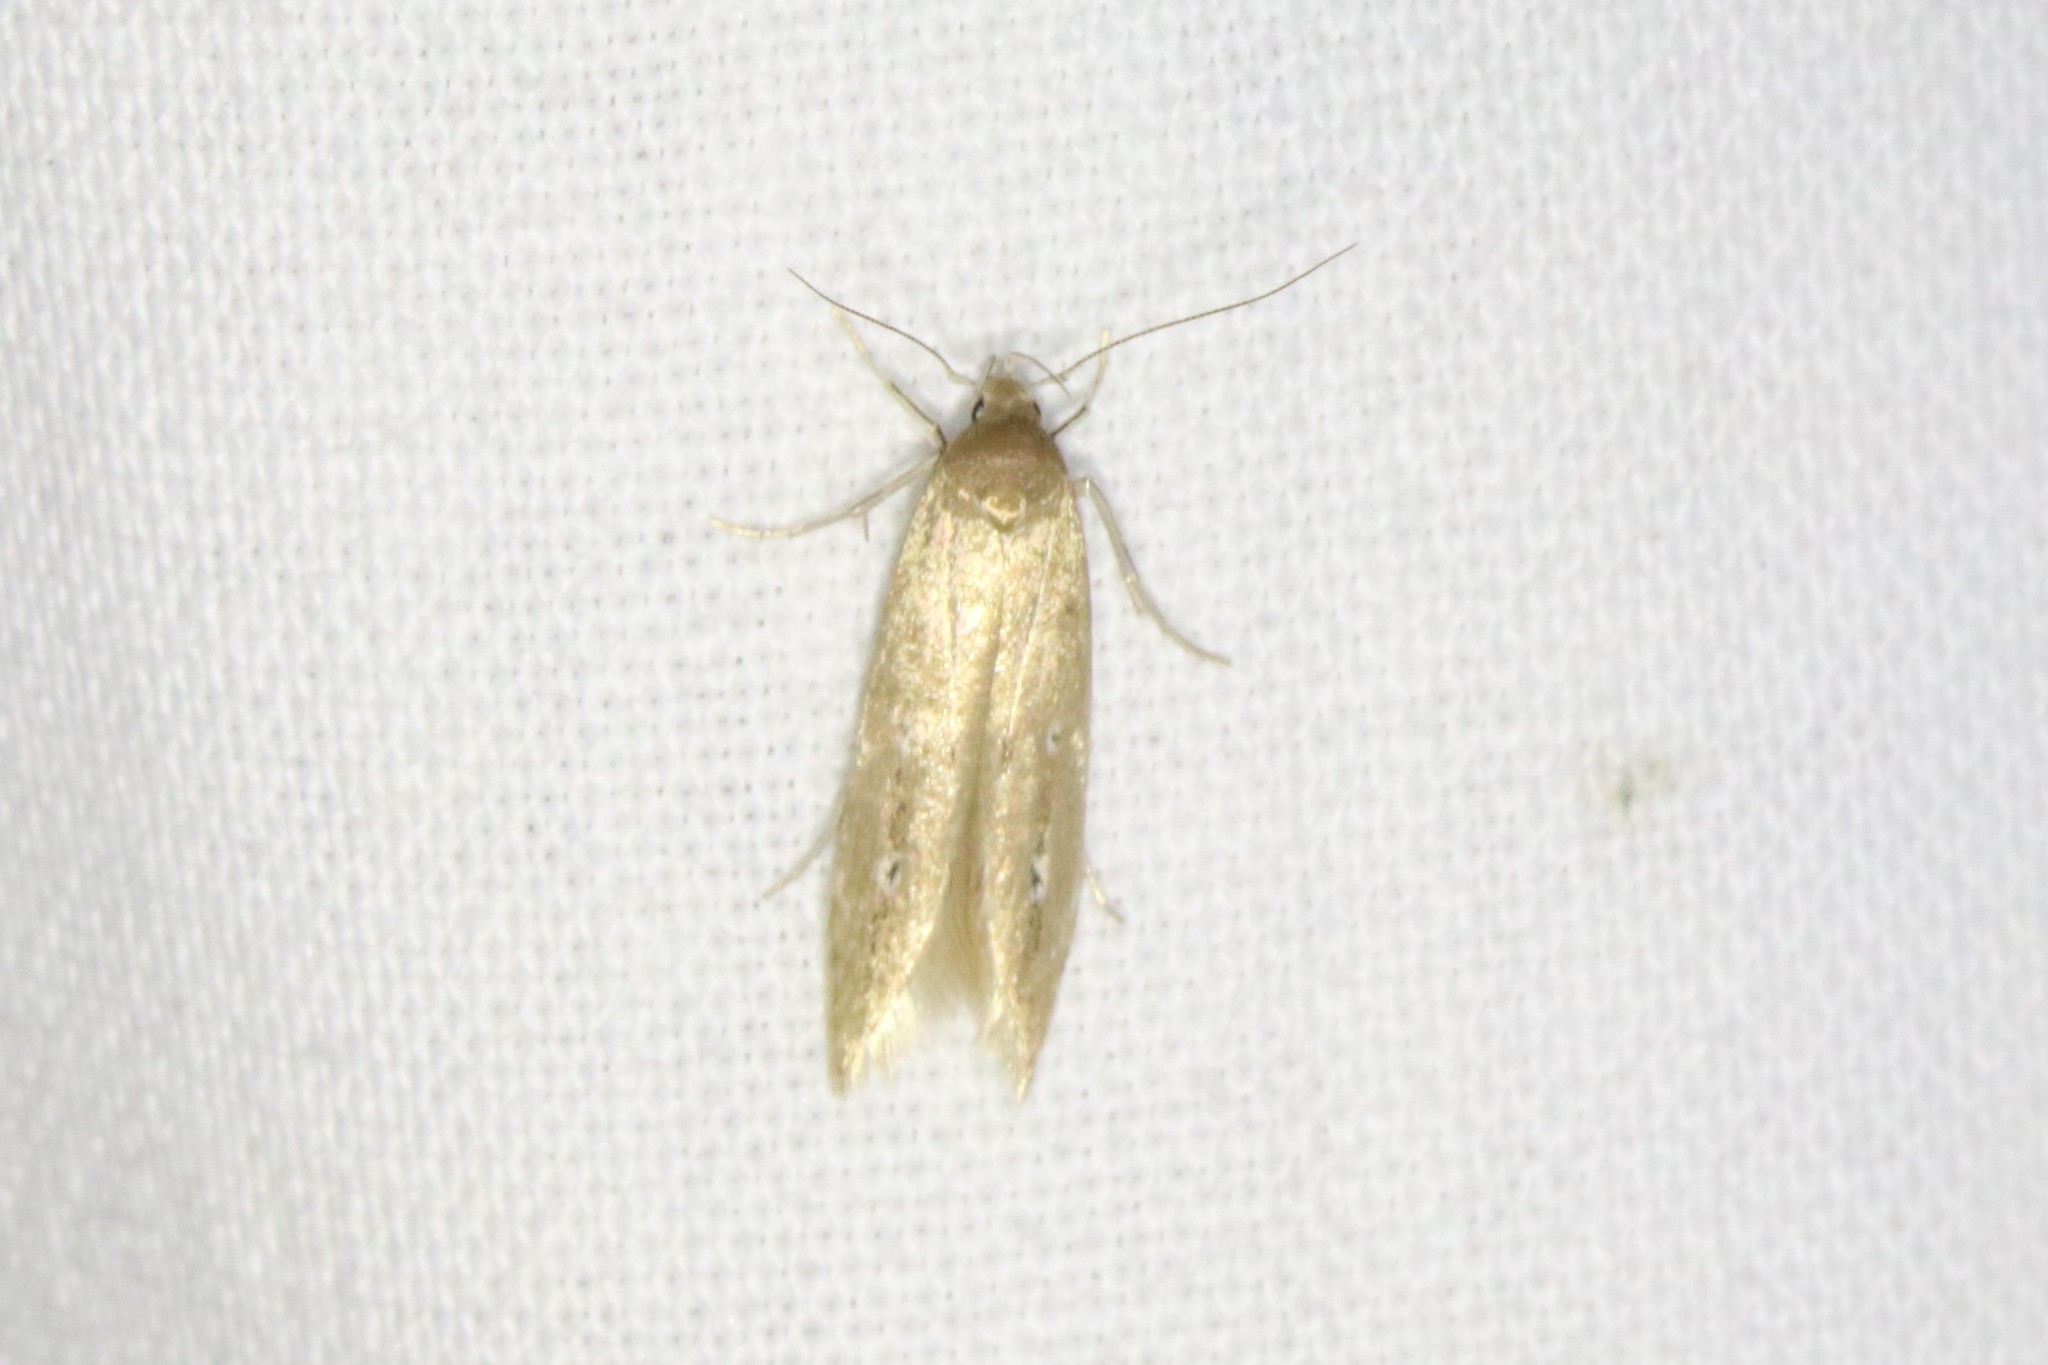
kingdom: Animalia
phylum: Arthropoda
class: Insecta
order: Lepidoptera
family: Cosmopterigidae
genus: Limnaecia
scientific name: Limnaecia phragmitella
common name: Bulrush cosmet
